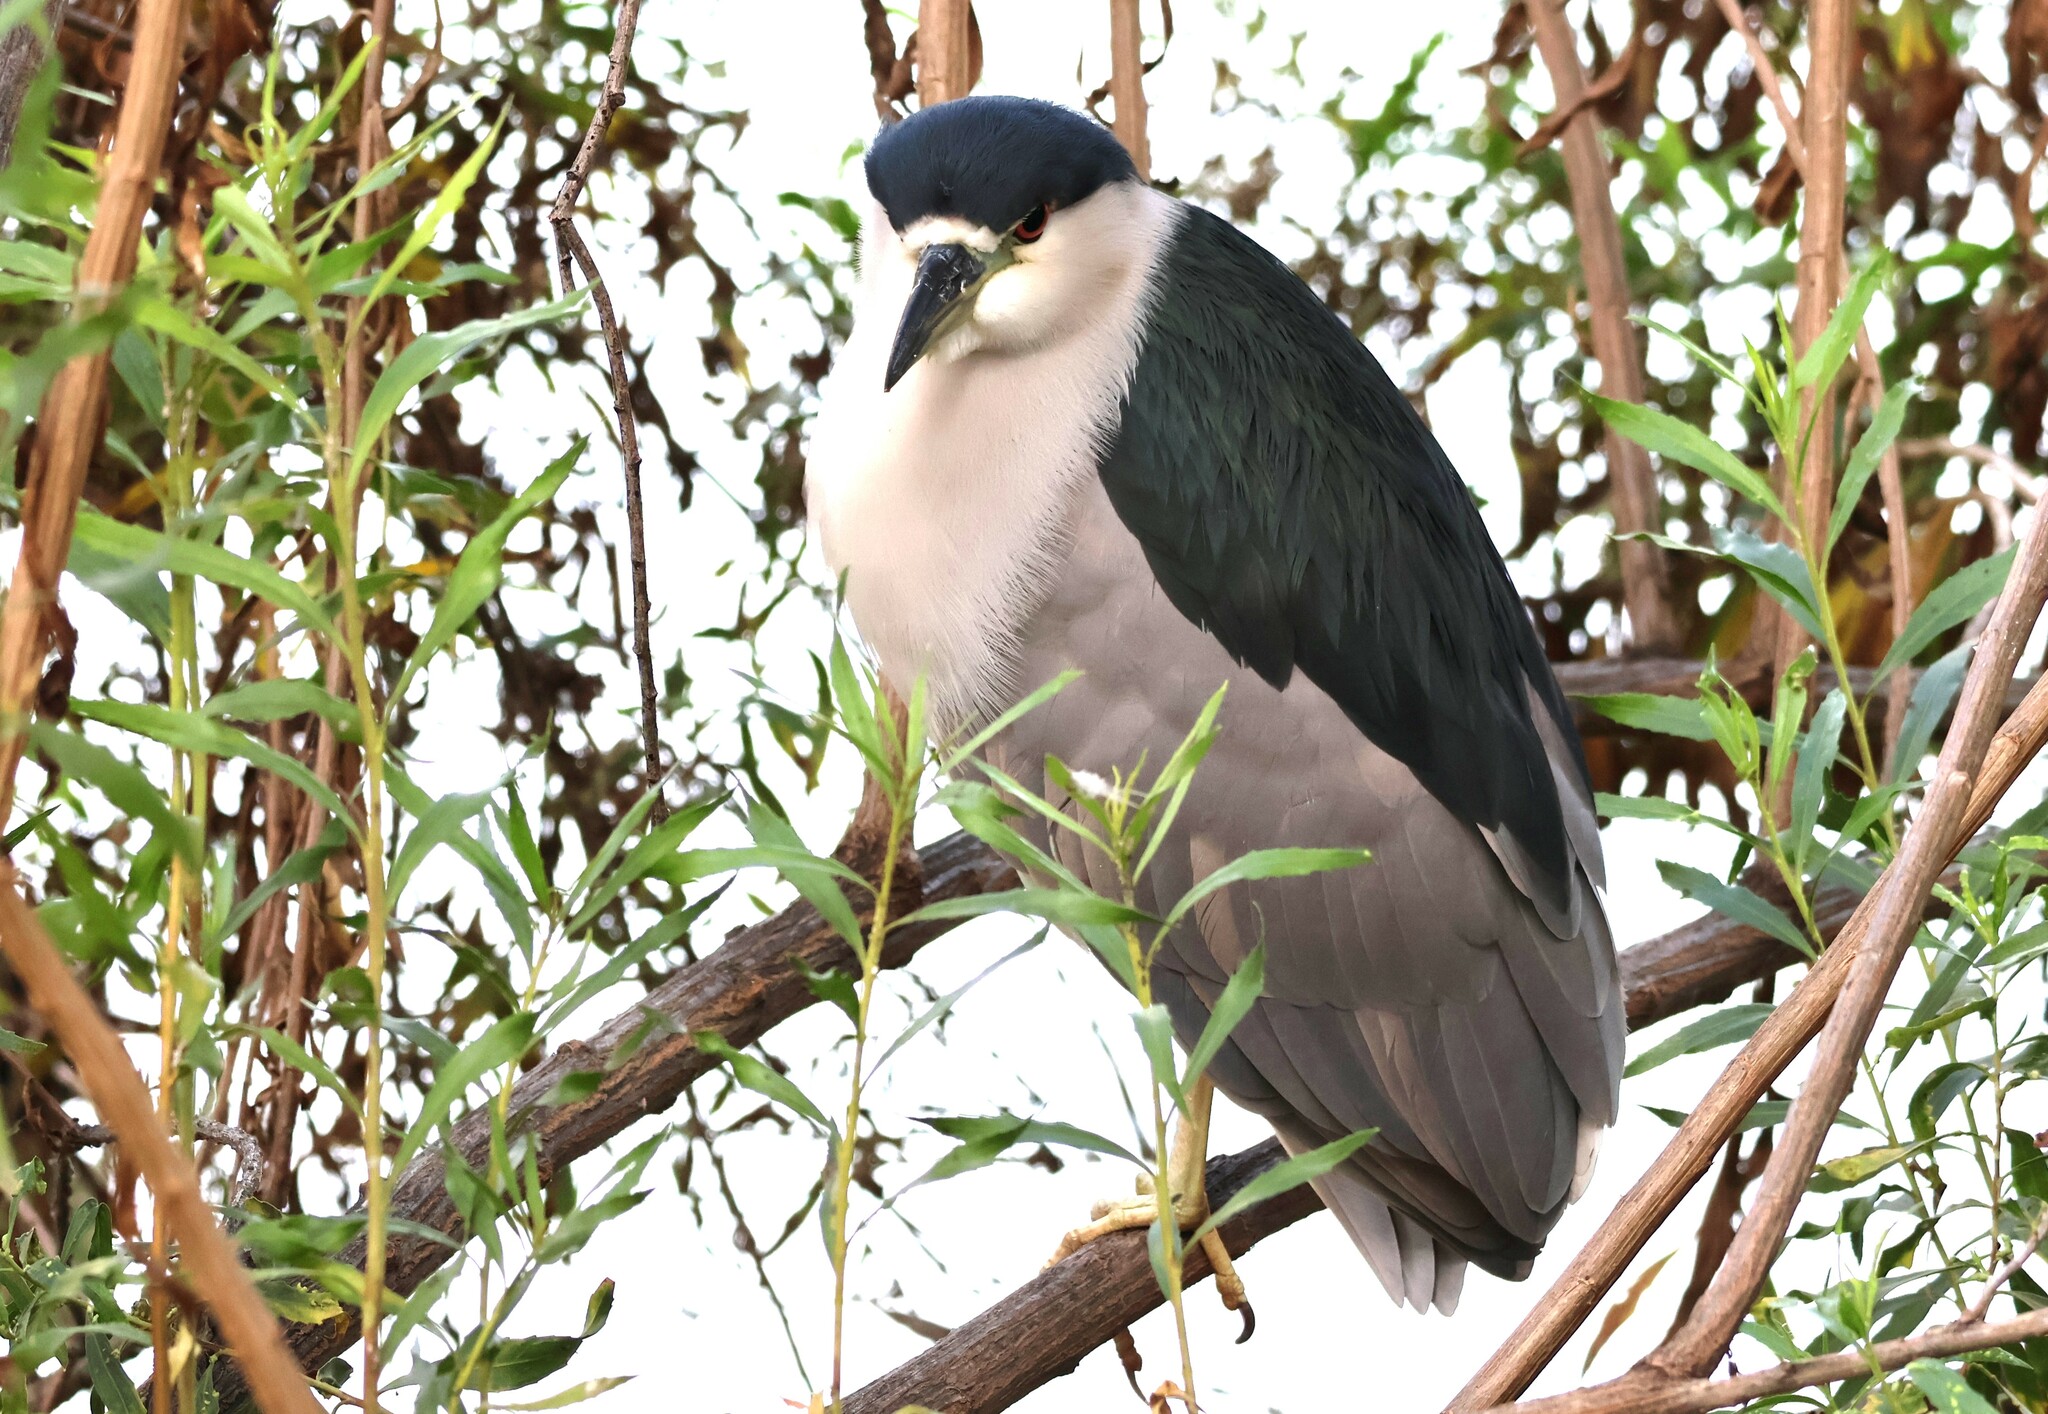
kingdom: Animalia
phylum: Chordata
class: Aves
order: Pelecaniformes
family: Ardeidae
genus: Nycticorax
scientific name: Nycticorax nycticorax
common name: Black-crowned night heron
